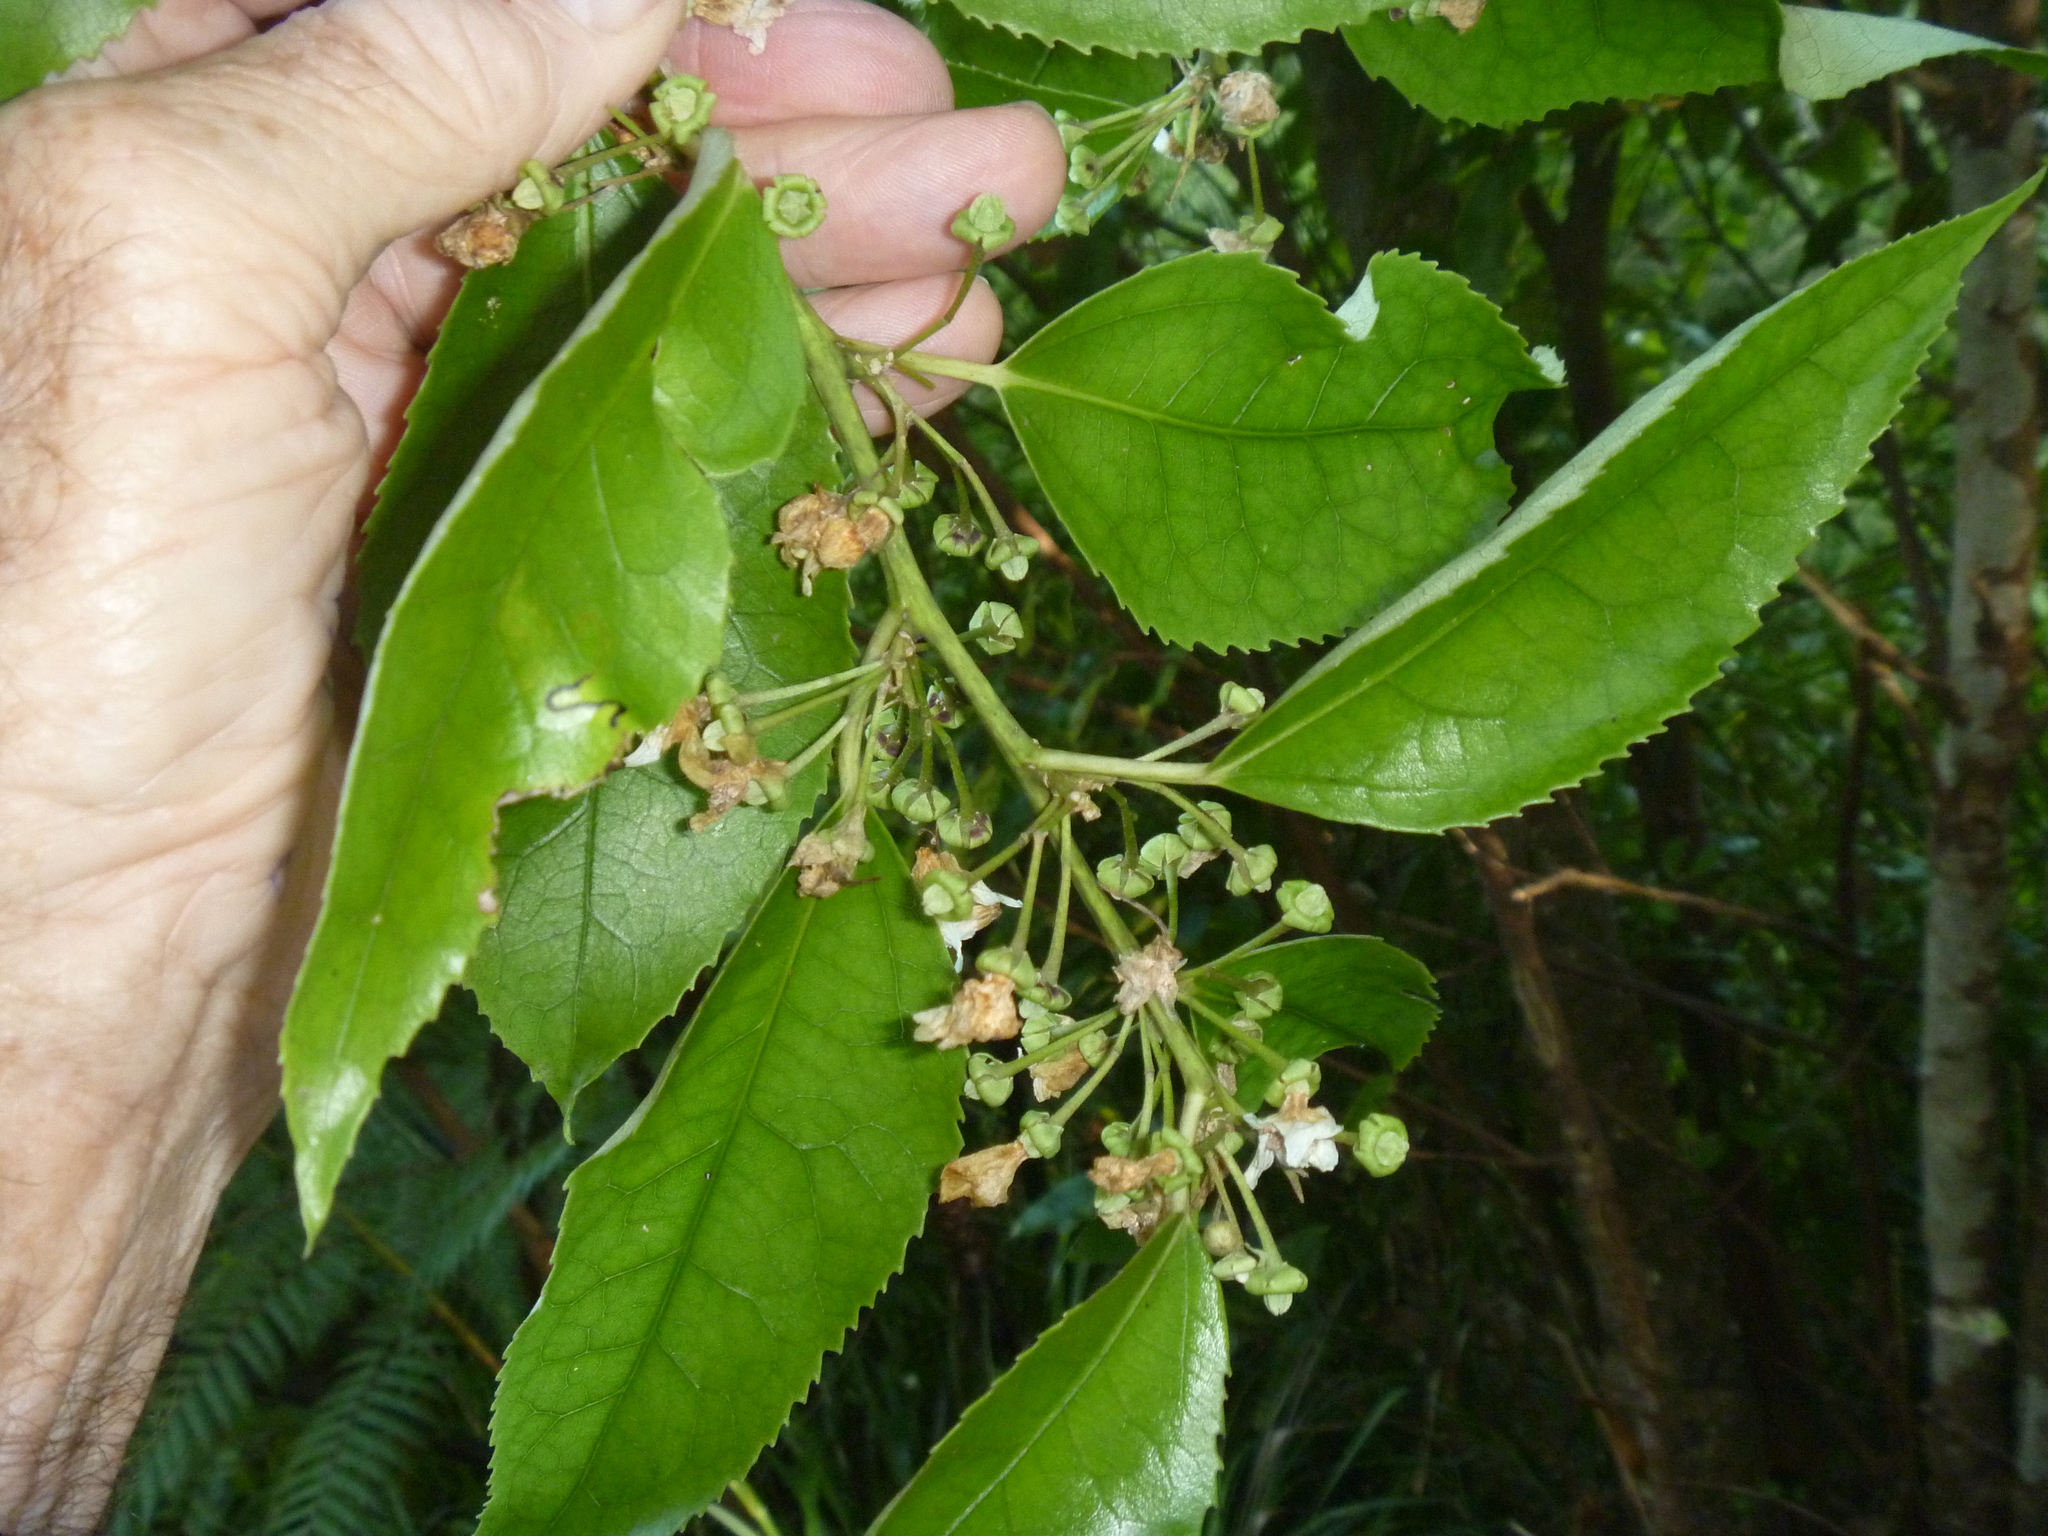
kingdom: Plantae
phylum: Tracheophyta
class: Magnoliopsida
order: Malvales
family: Malvaceae
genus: Hoheria
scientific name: Hoheria populnea
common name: Lacebark
